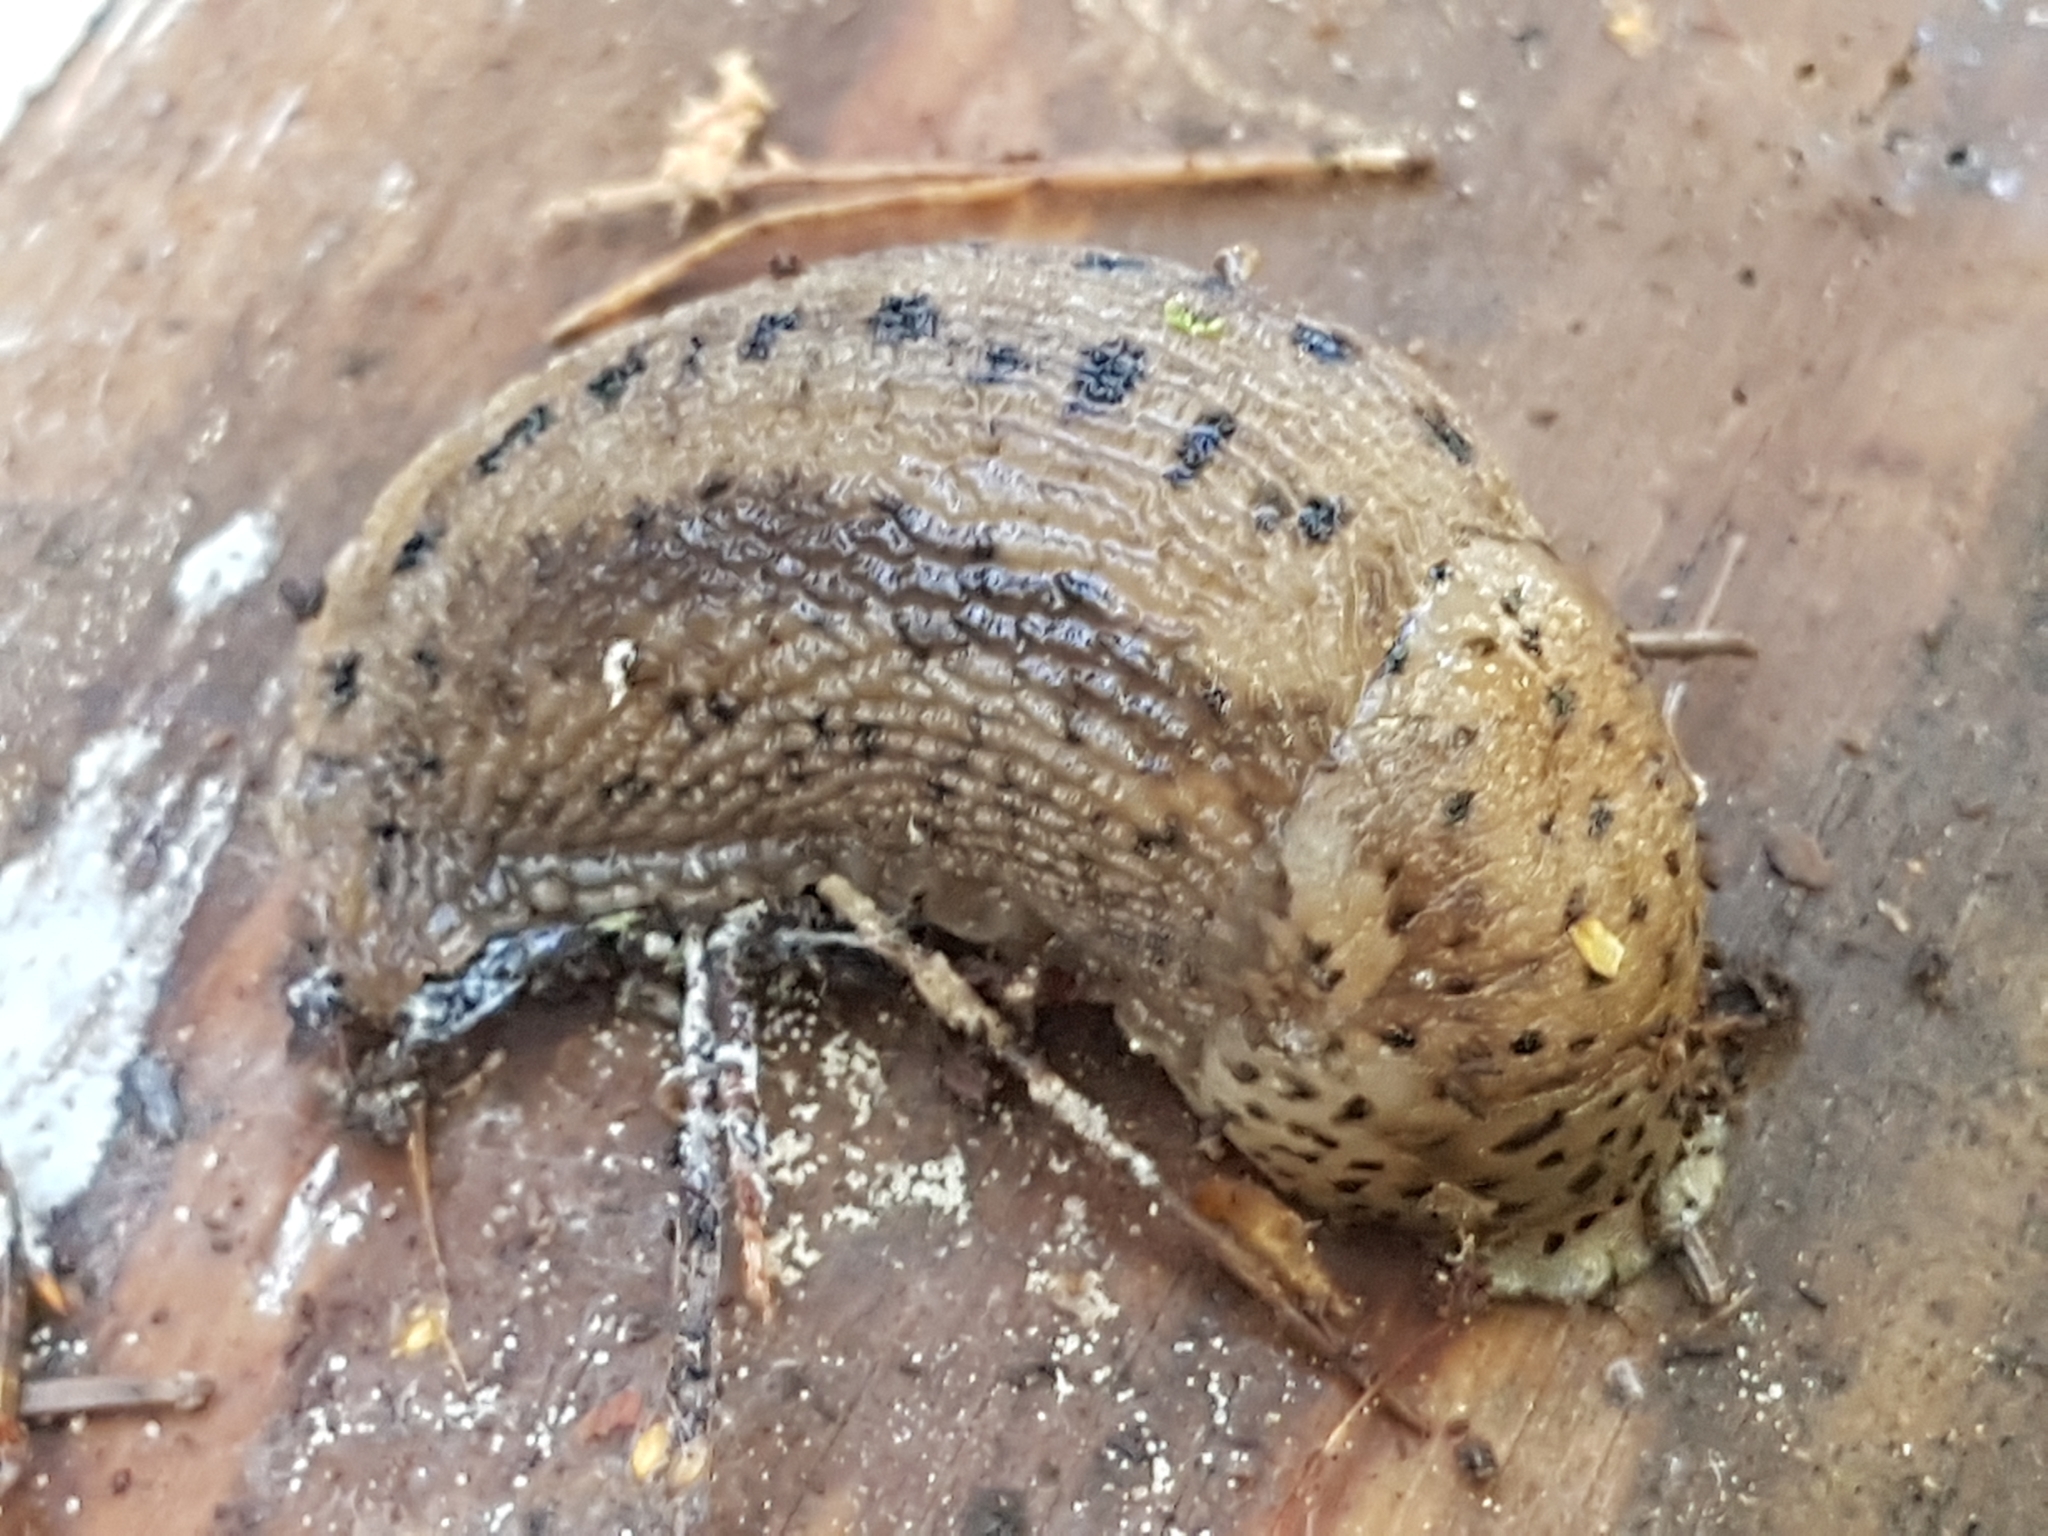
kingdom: Animalia
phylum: Mollusca
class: Gastropoda
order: Stylommatophora
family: Limacidae
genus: Limax
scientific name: Limax maximus
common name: Great grey slug
